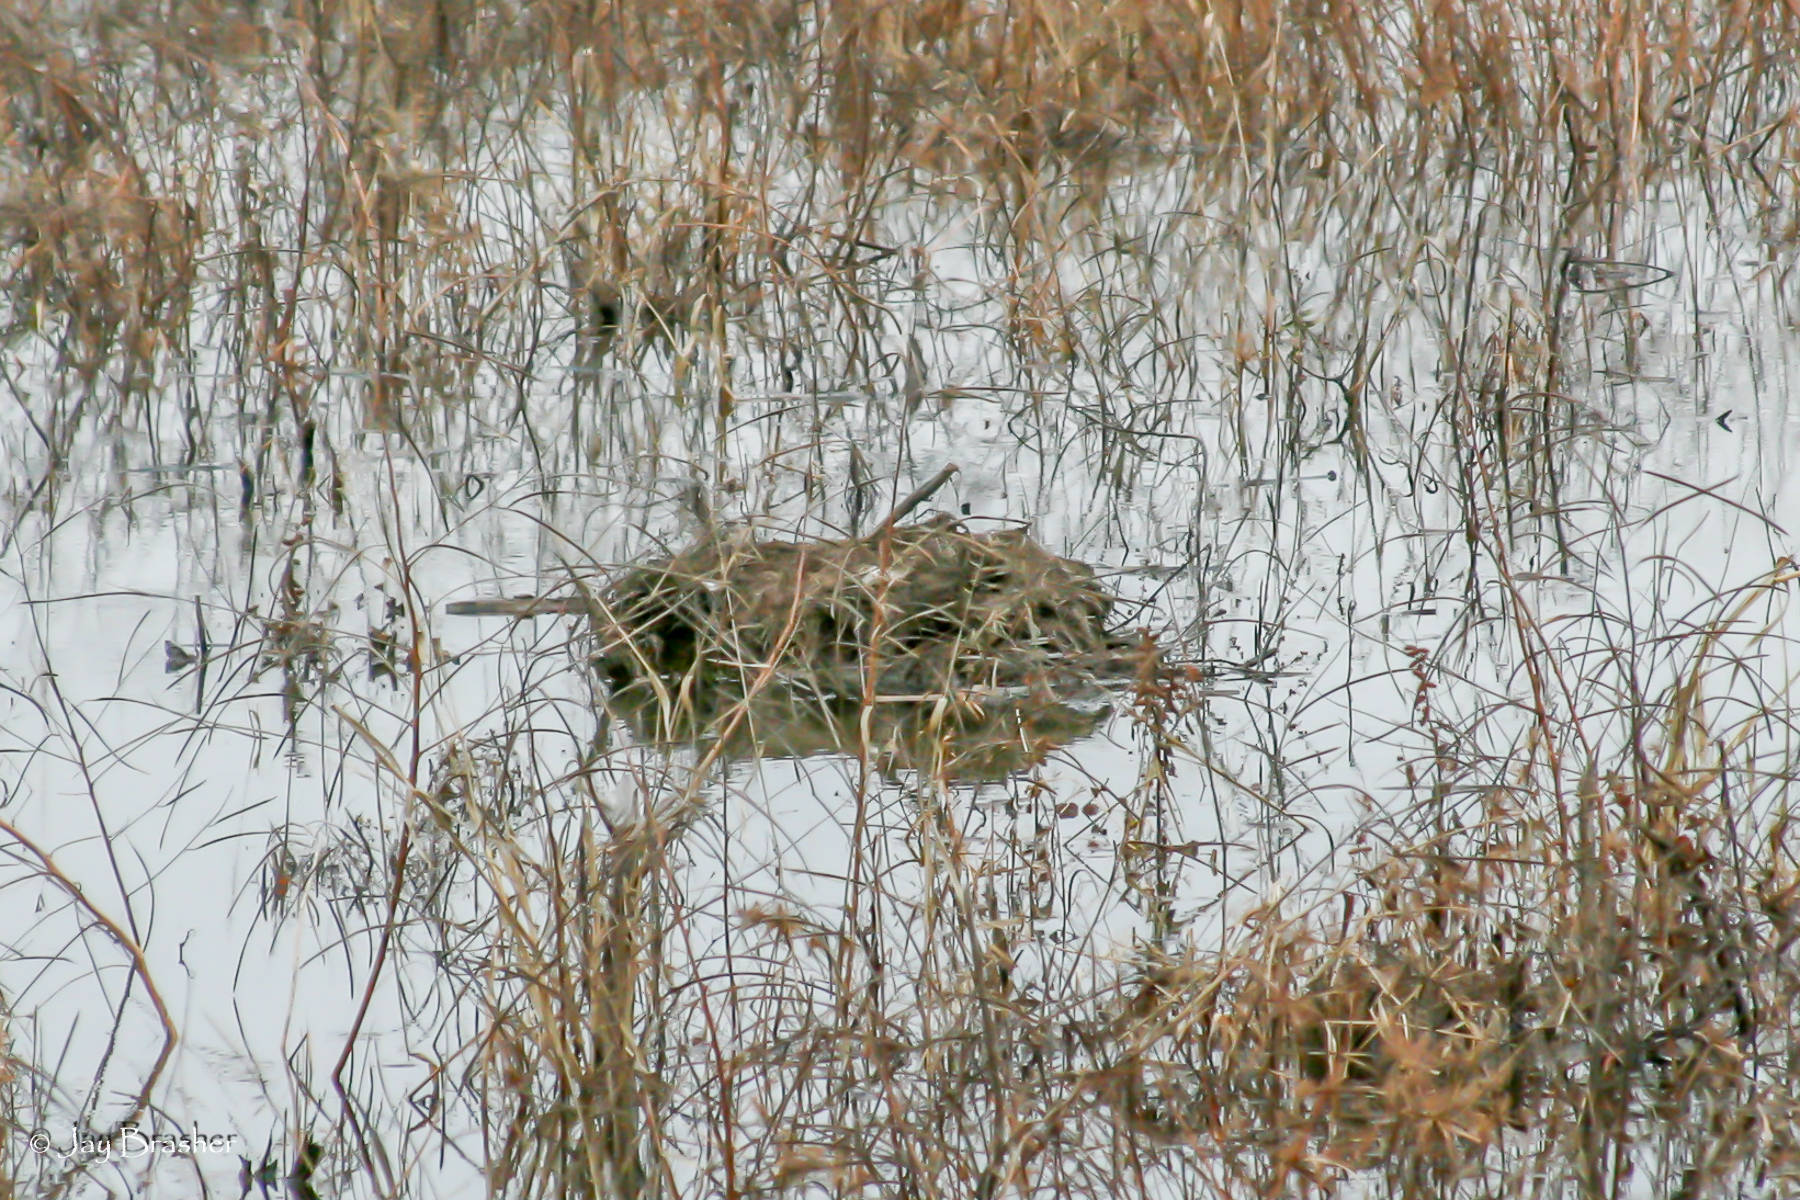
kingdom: Animalia
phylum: Chordata
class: Mammalia
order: Rodentia
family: Cricetidae
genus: Ondatra
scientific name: Ondatra zibethicus
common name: Muskrat
